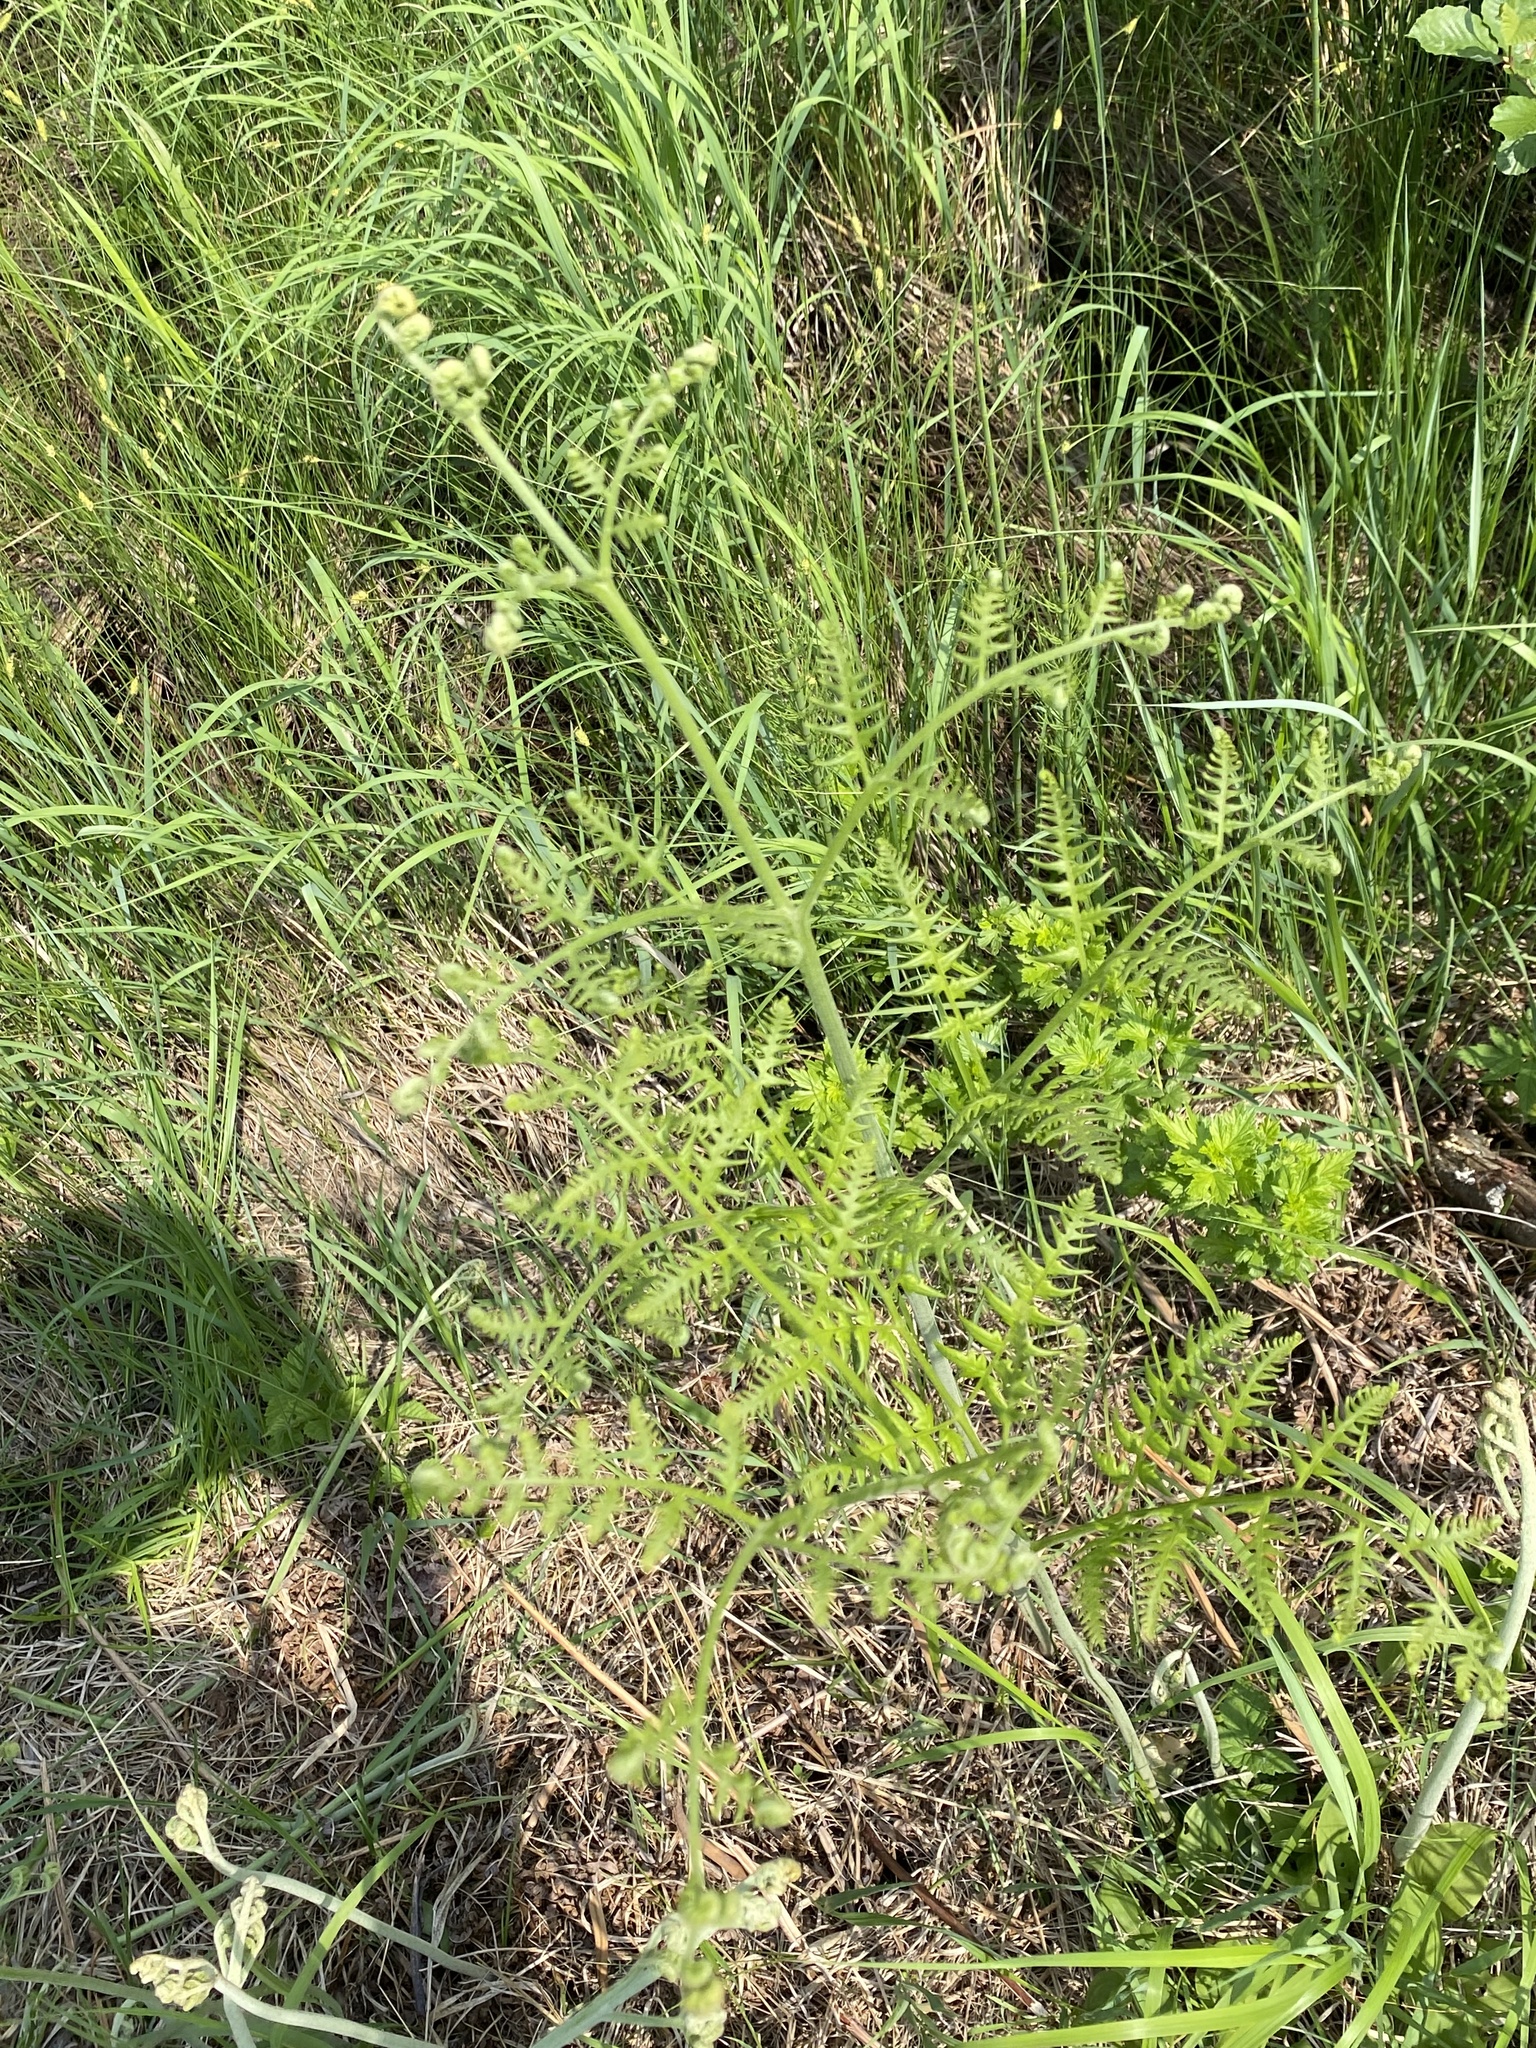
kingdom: Plantae
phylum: Tracheophyta
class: Polypodiopsida
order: Polypodiales
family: Dennstaedtiaceae
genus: Pteridium
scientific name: Pteridium aquilinum
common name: Bracken
